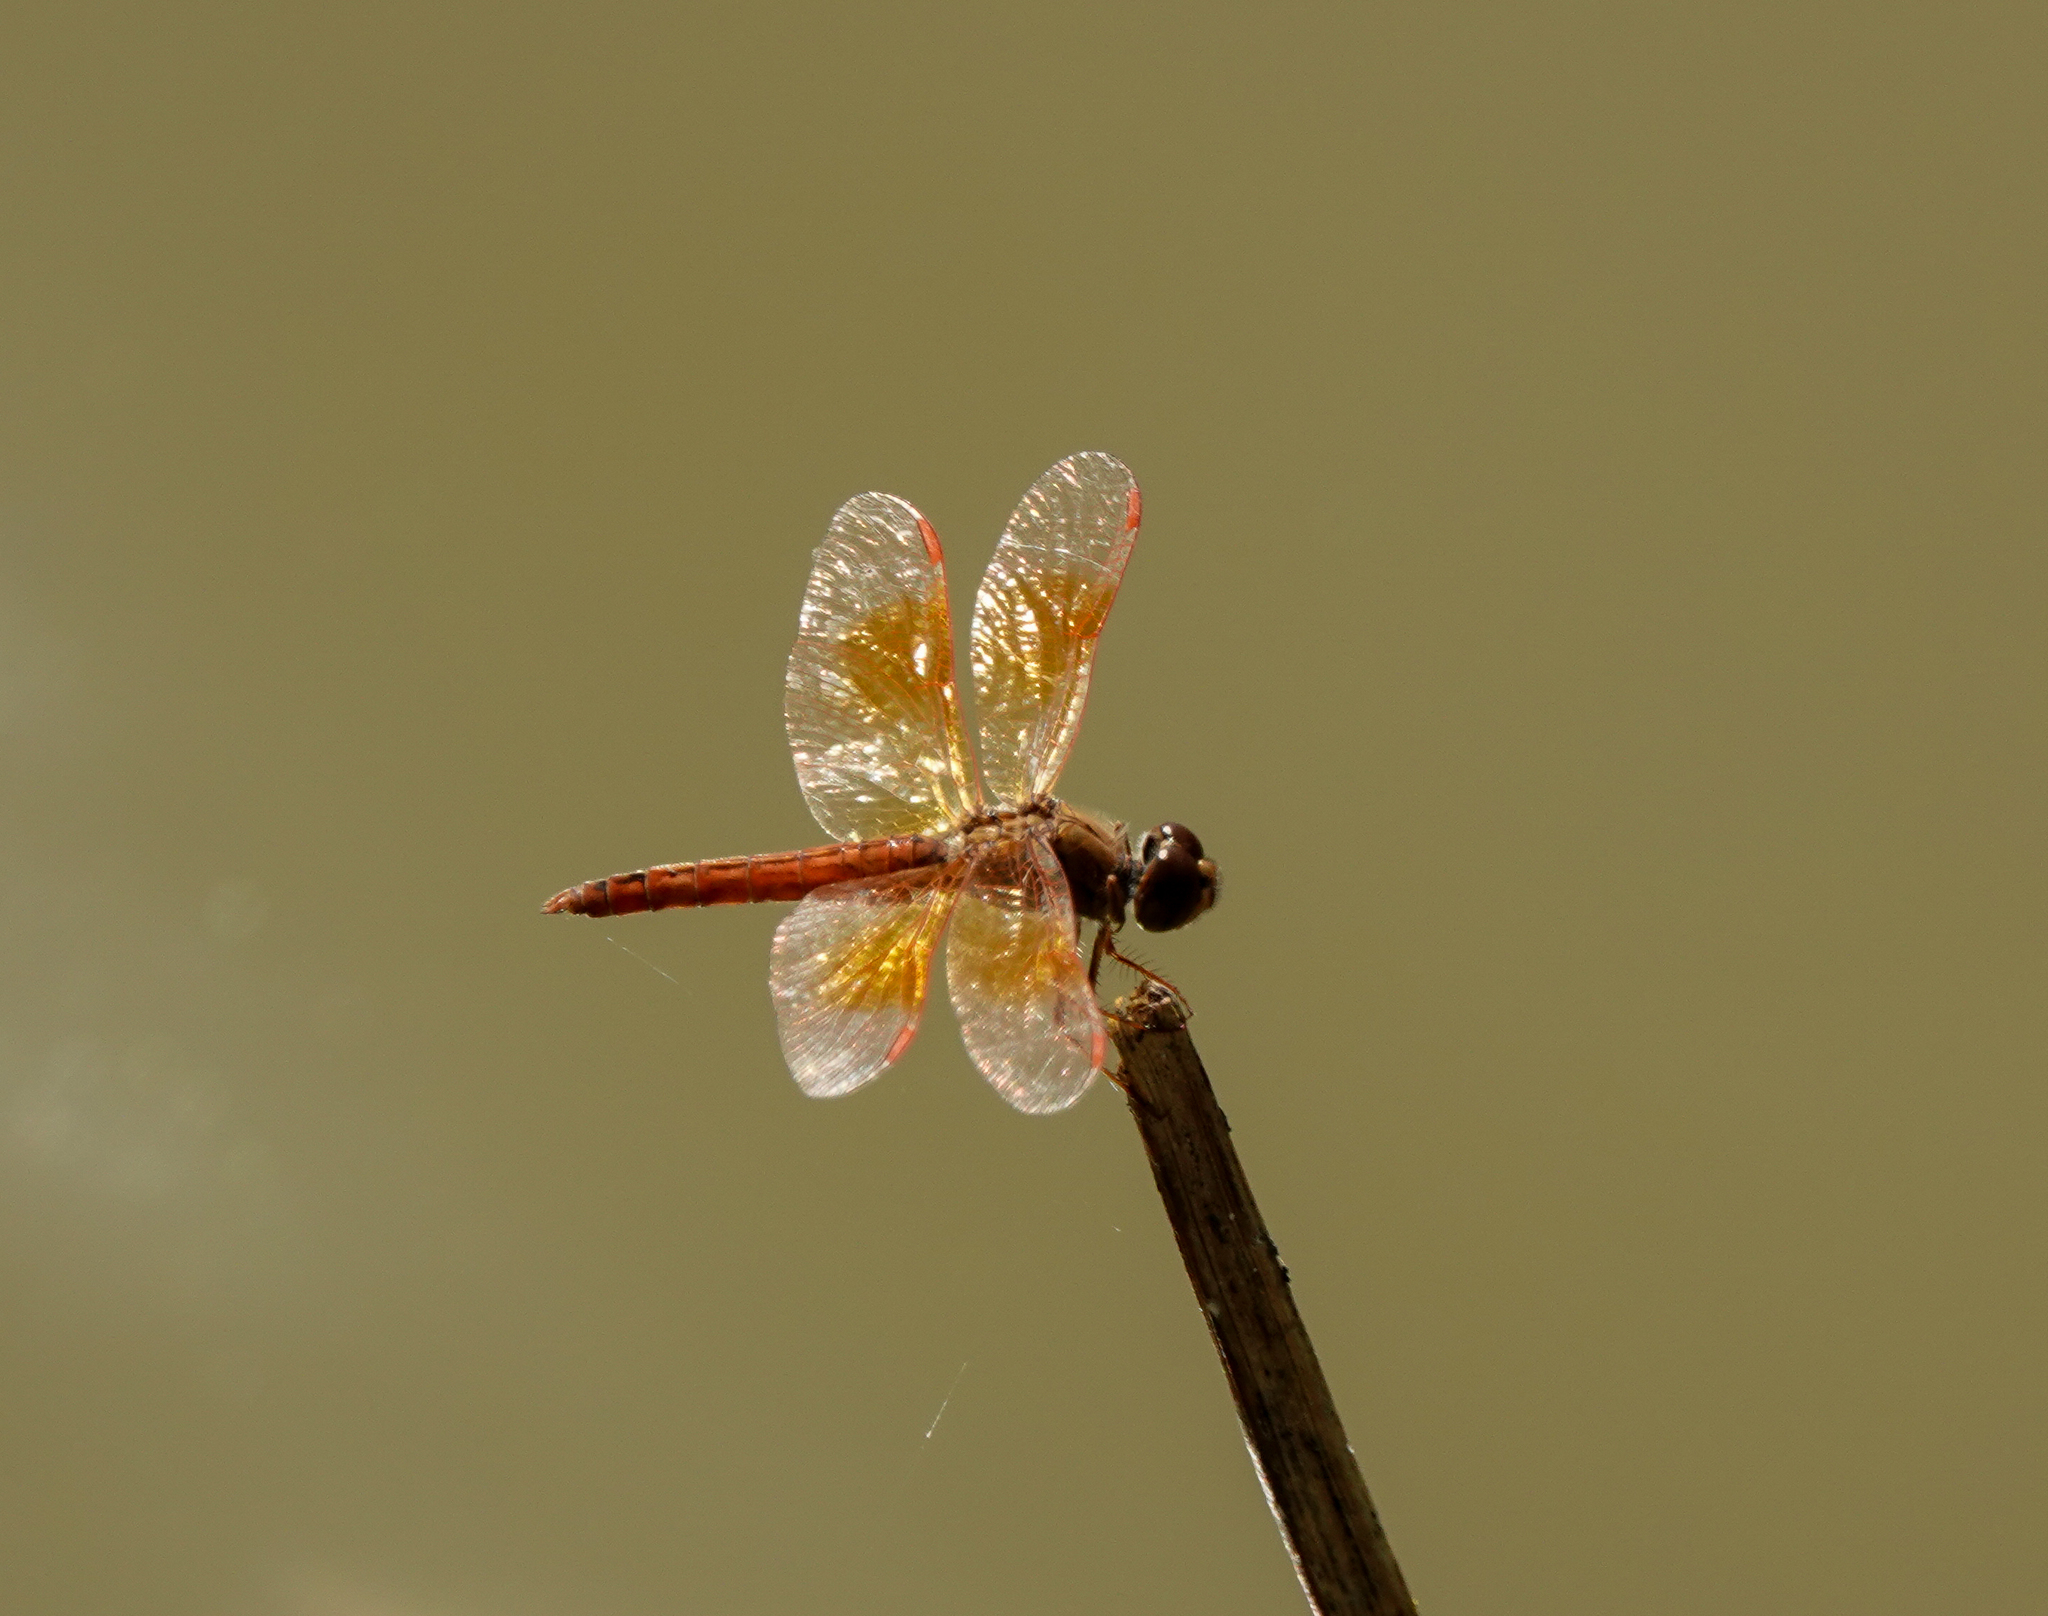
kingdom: Animalia
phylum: Arthropoda
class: Insecta
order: Odonata
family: Libellulidae
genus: Brachythemis
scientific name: Brachythemis contaminata
